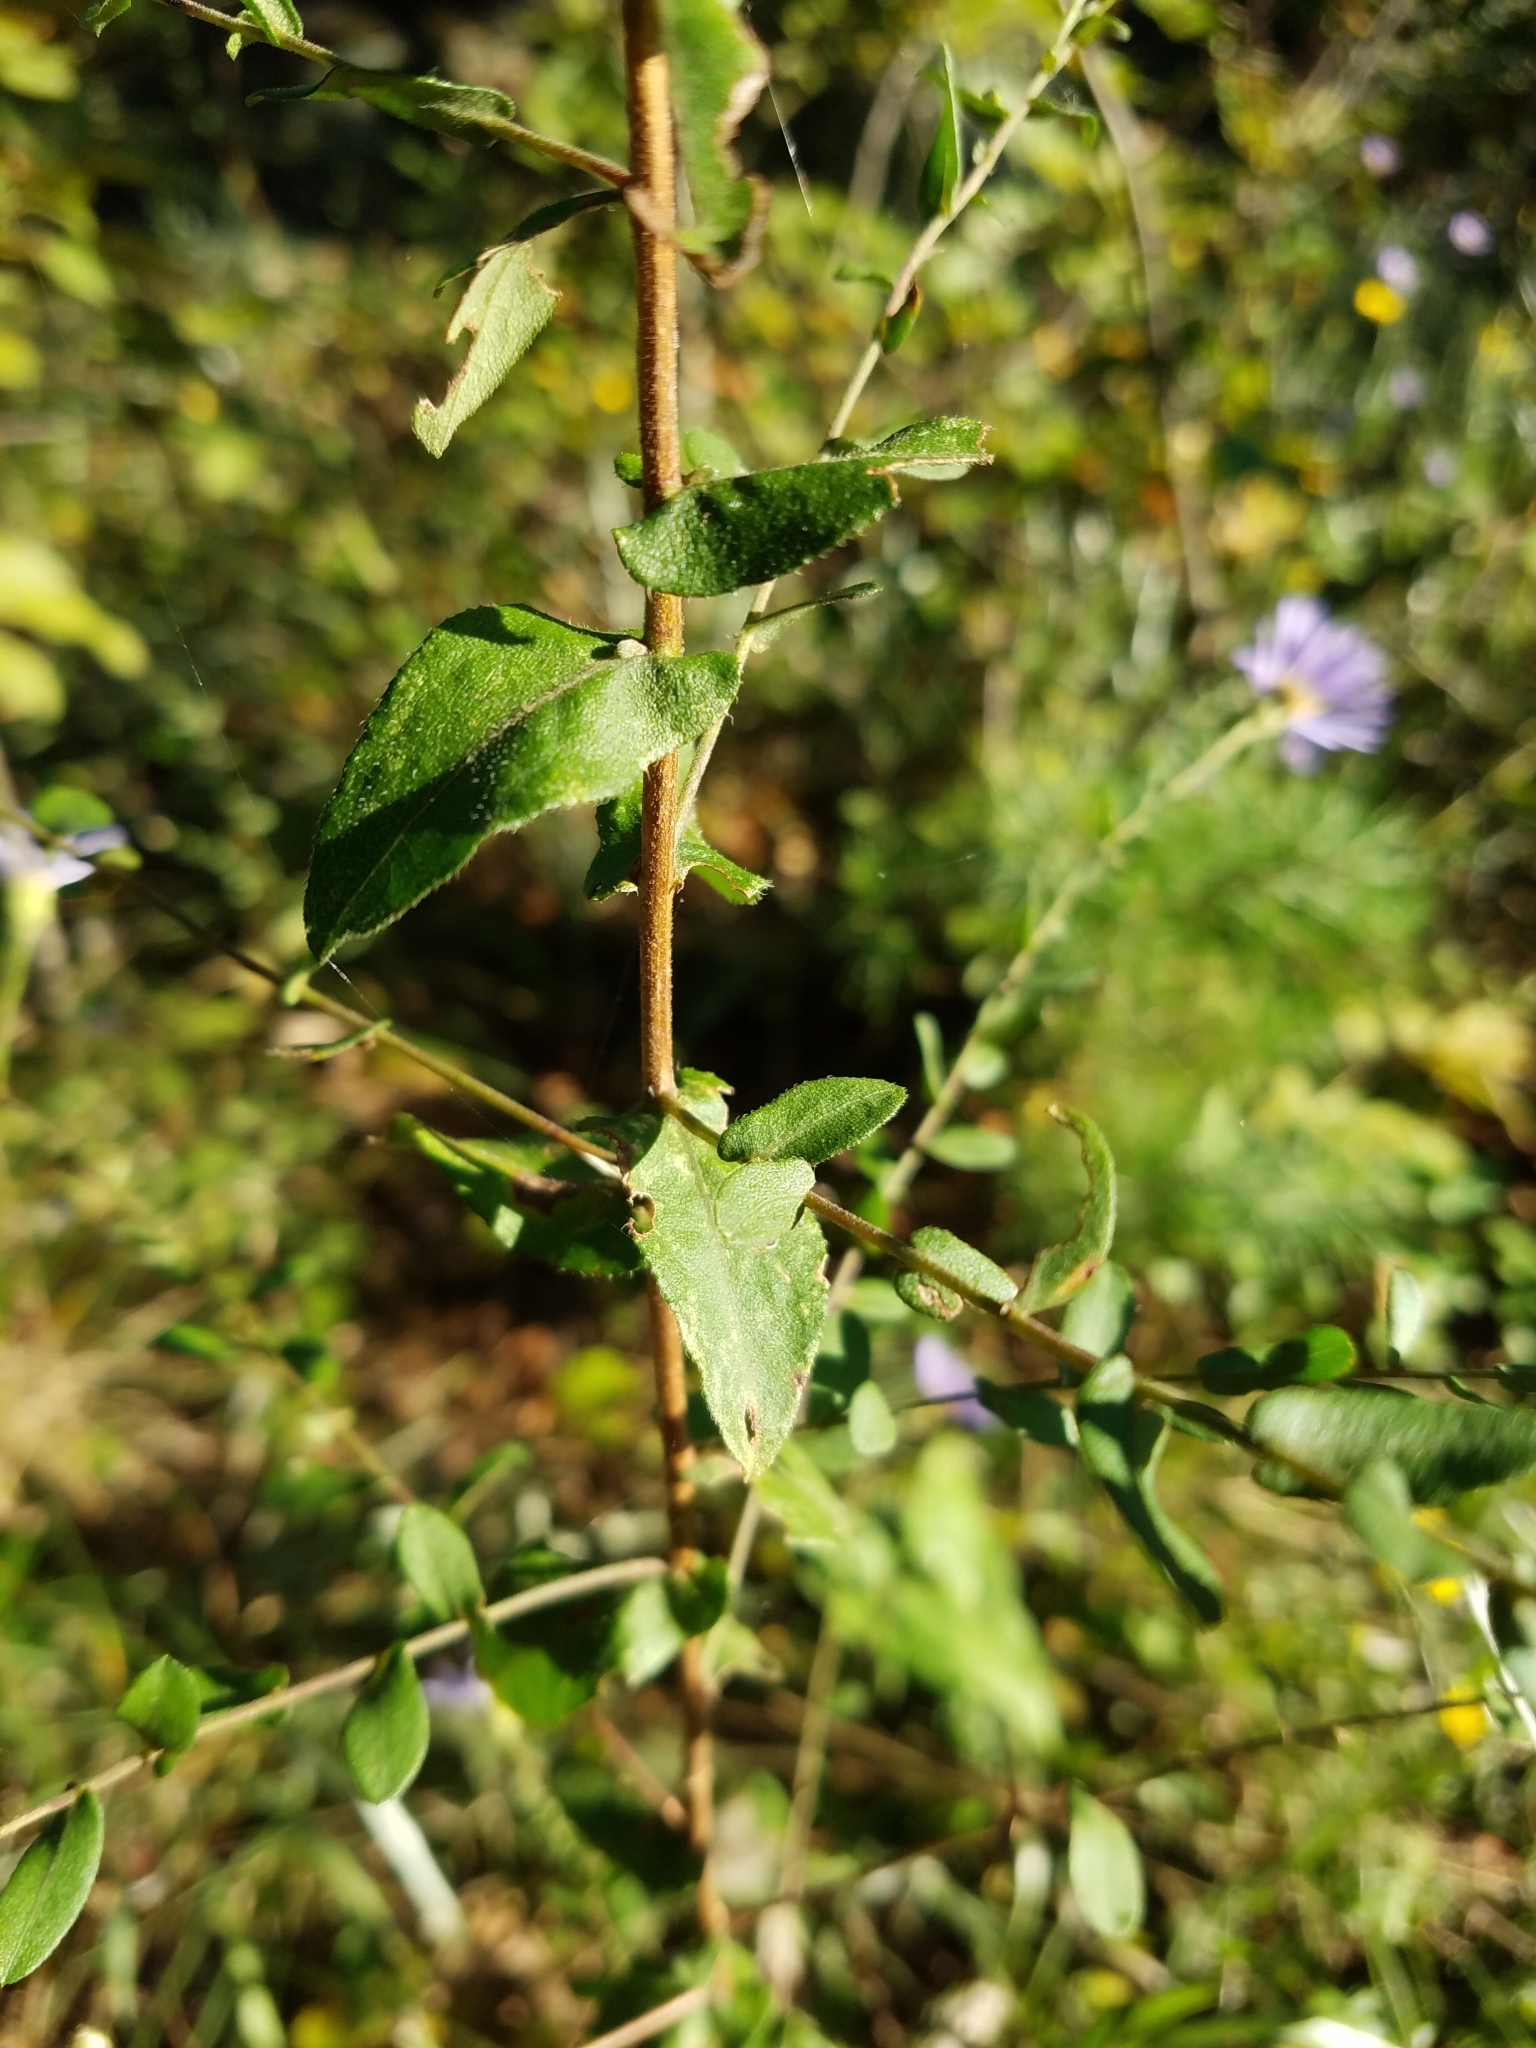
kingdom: Plantae
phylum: Tracheophyta
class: Magnoliopsida
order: Asterales
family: Asteraceae
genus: Symphyotrichum
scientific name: Symphyotrichum patens
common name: Late purple aster
